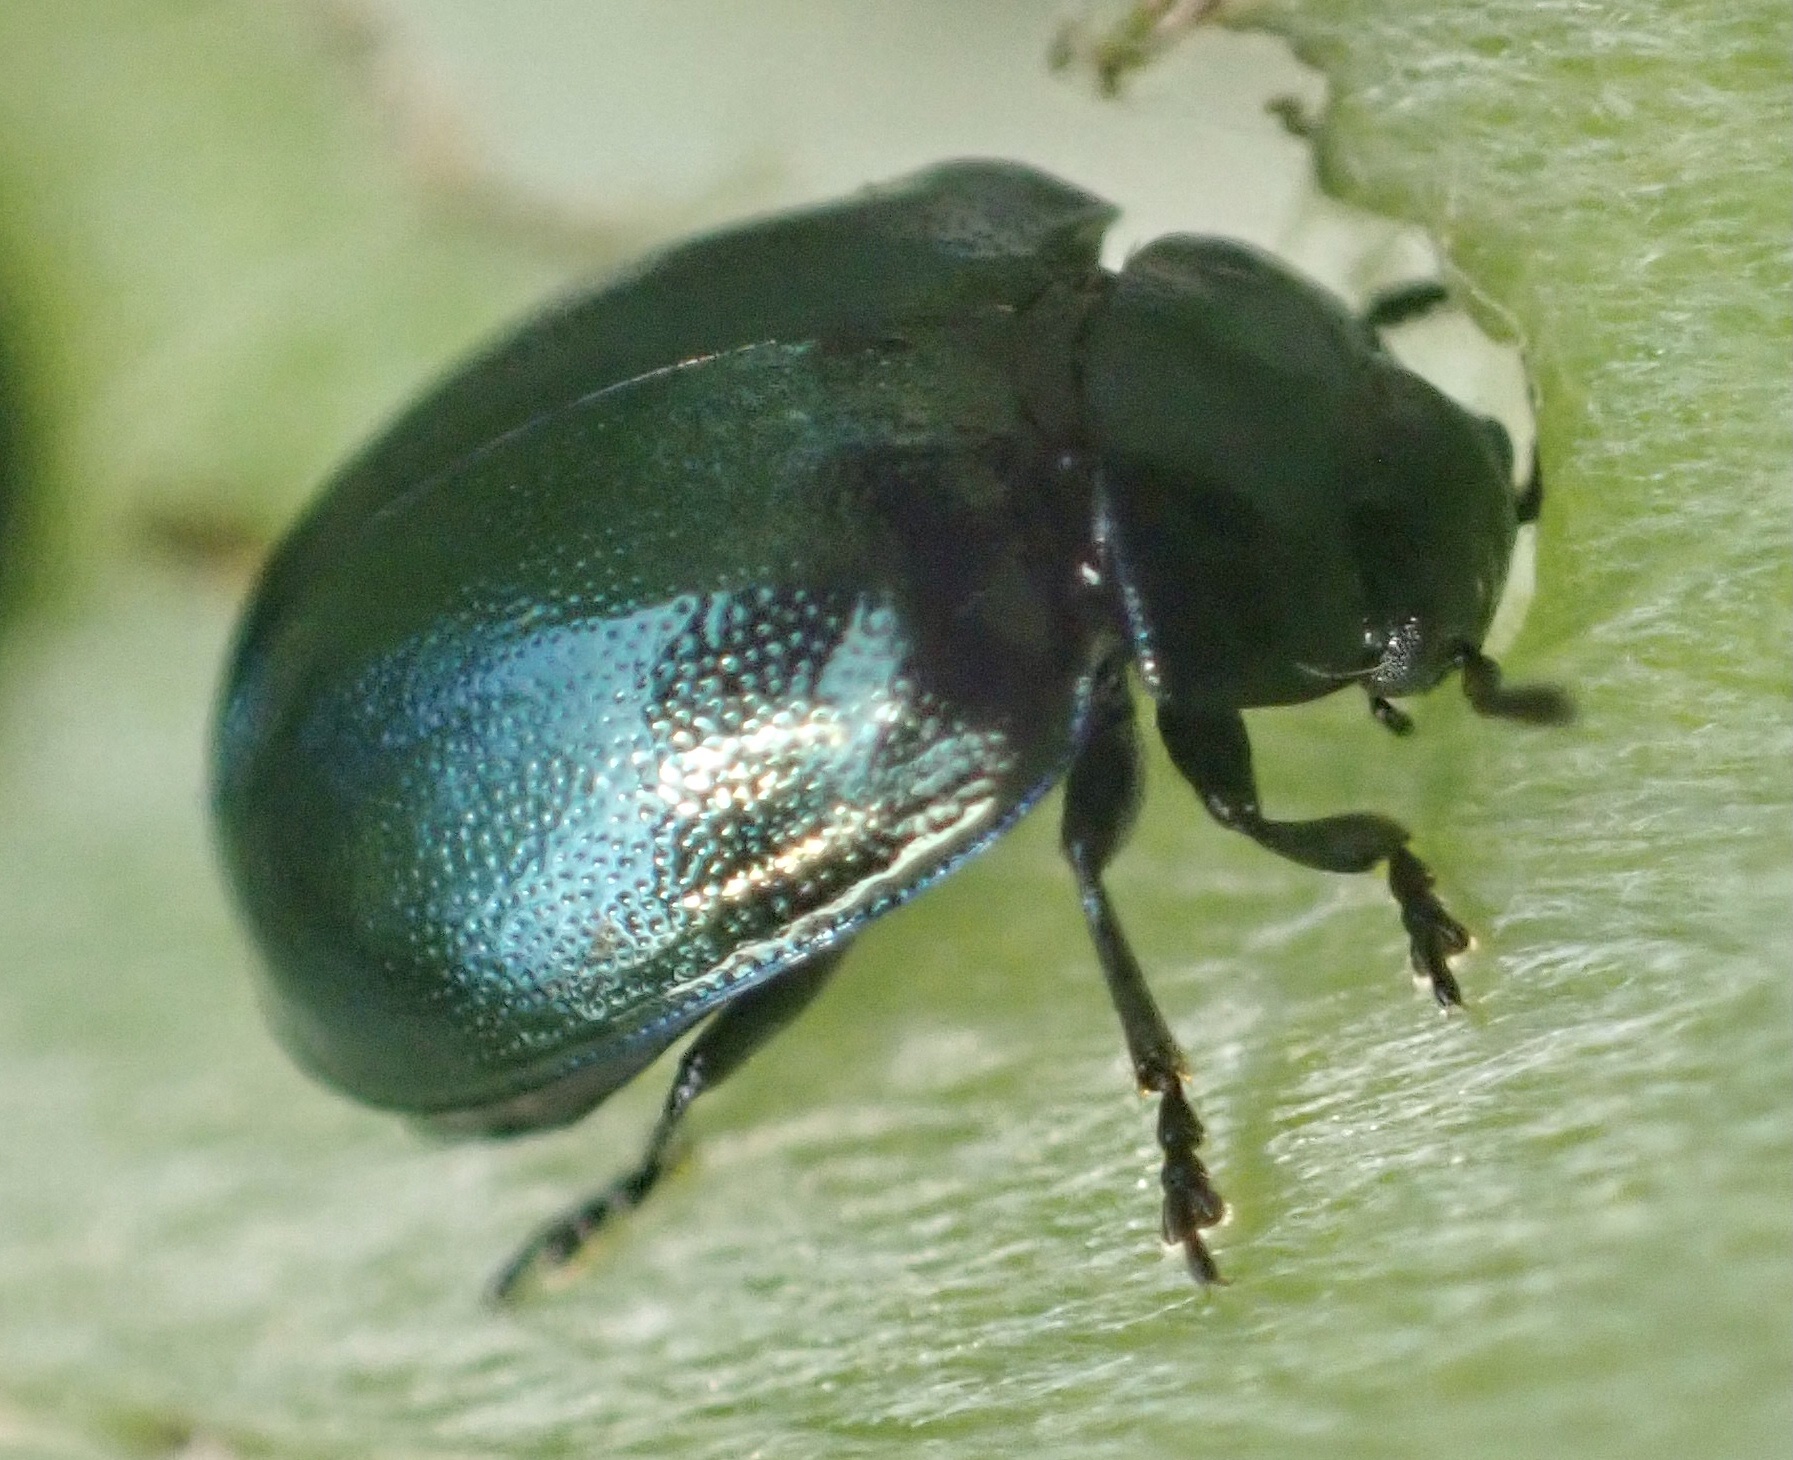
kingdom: Animalia
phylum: Arthropoda
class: Insecta
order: Coleoptera
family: Chrysomelidae
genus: Plagiodera
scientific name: Plagiodera versicolora
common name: Imported willow leaf beetle
